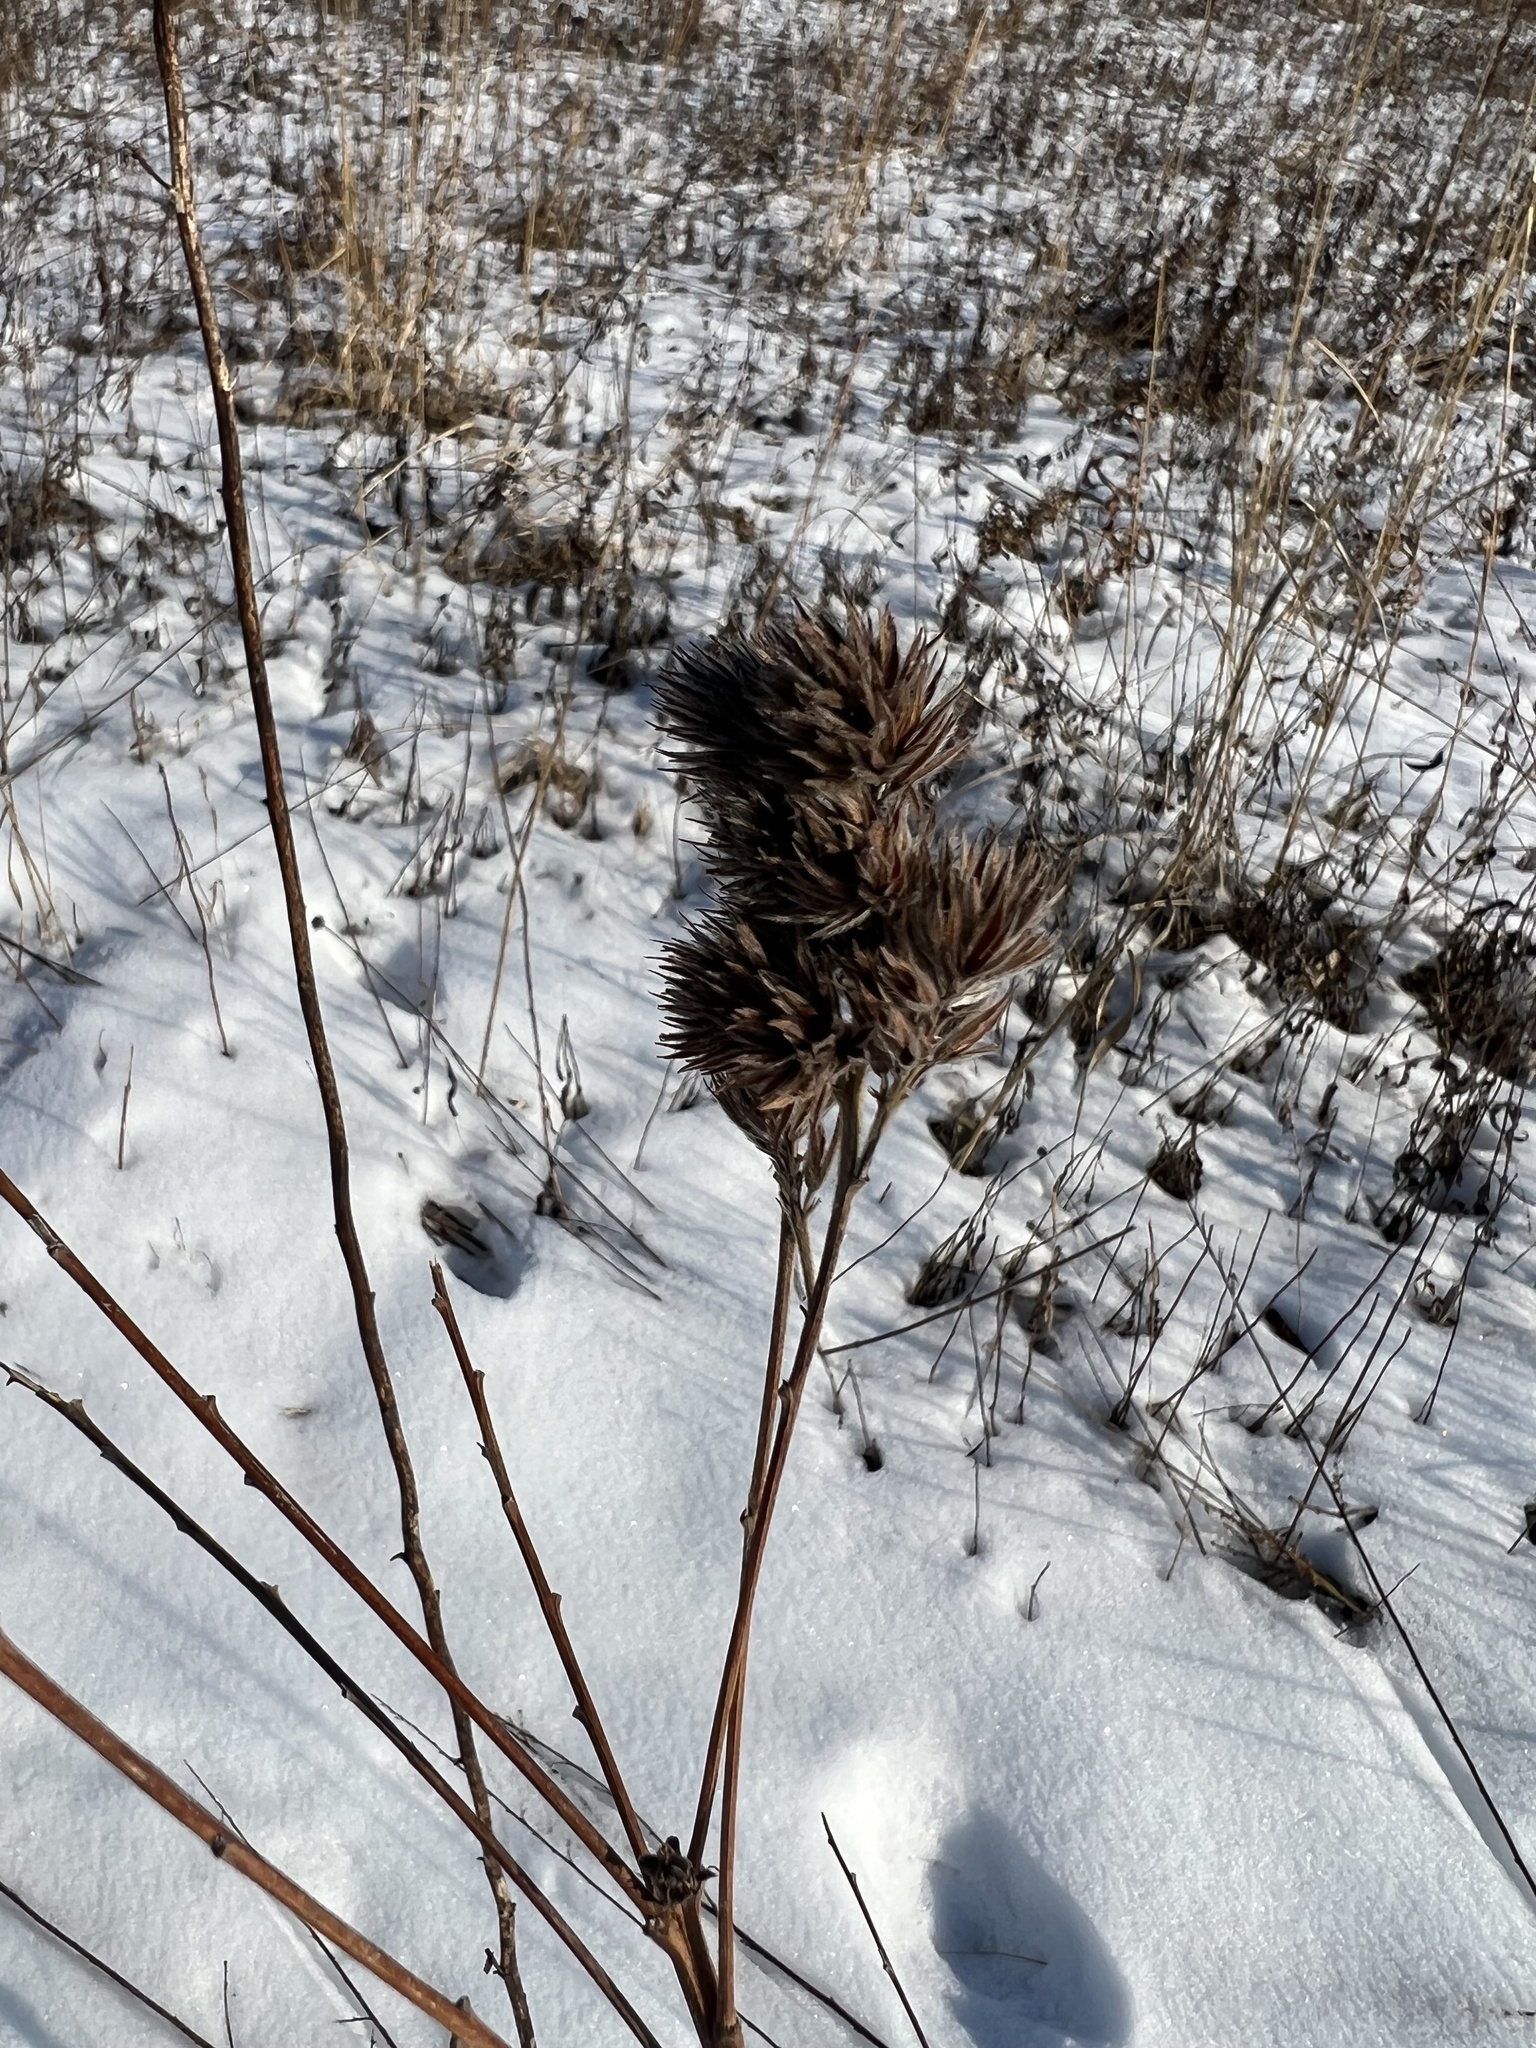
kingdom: Plantae
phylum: Tracheophyta
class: Magnoliopsida
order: Fabales
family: Fabaceae
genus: Lespedeza
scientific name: Lespedeza capitata
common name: Dusty clover
